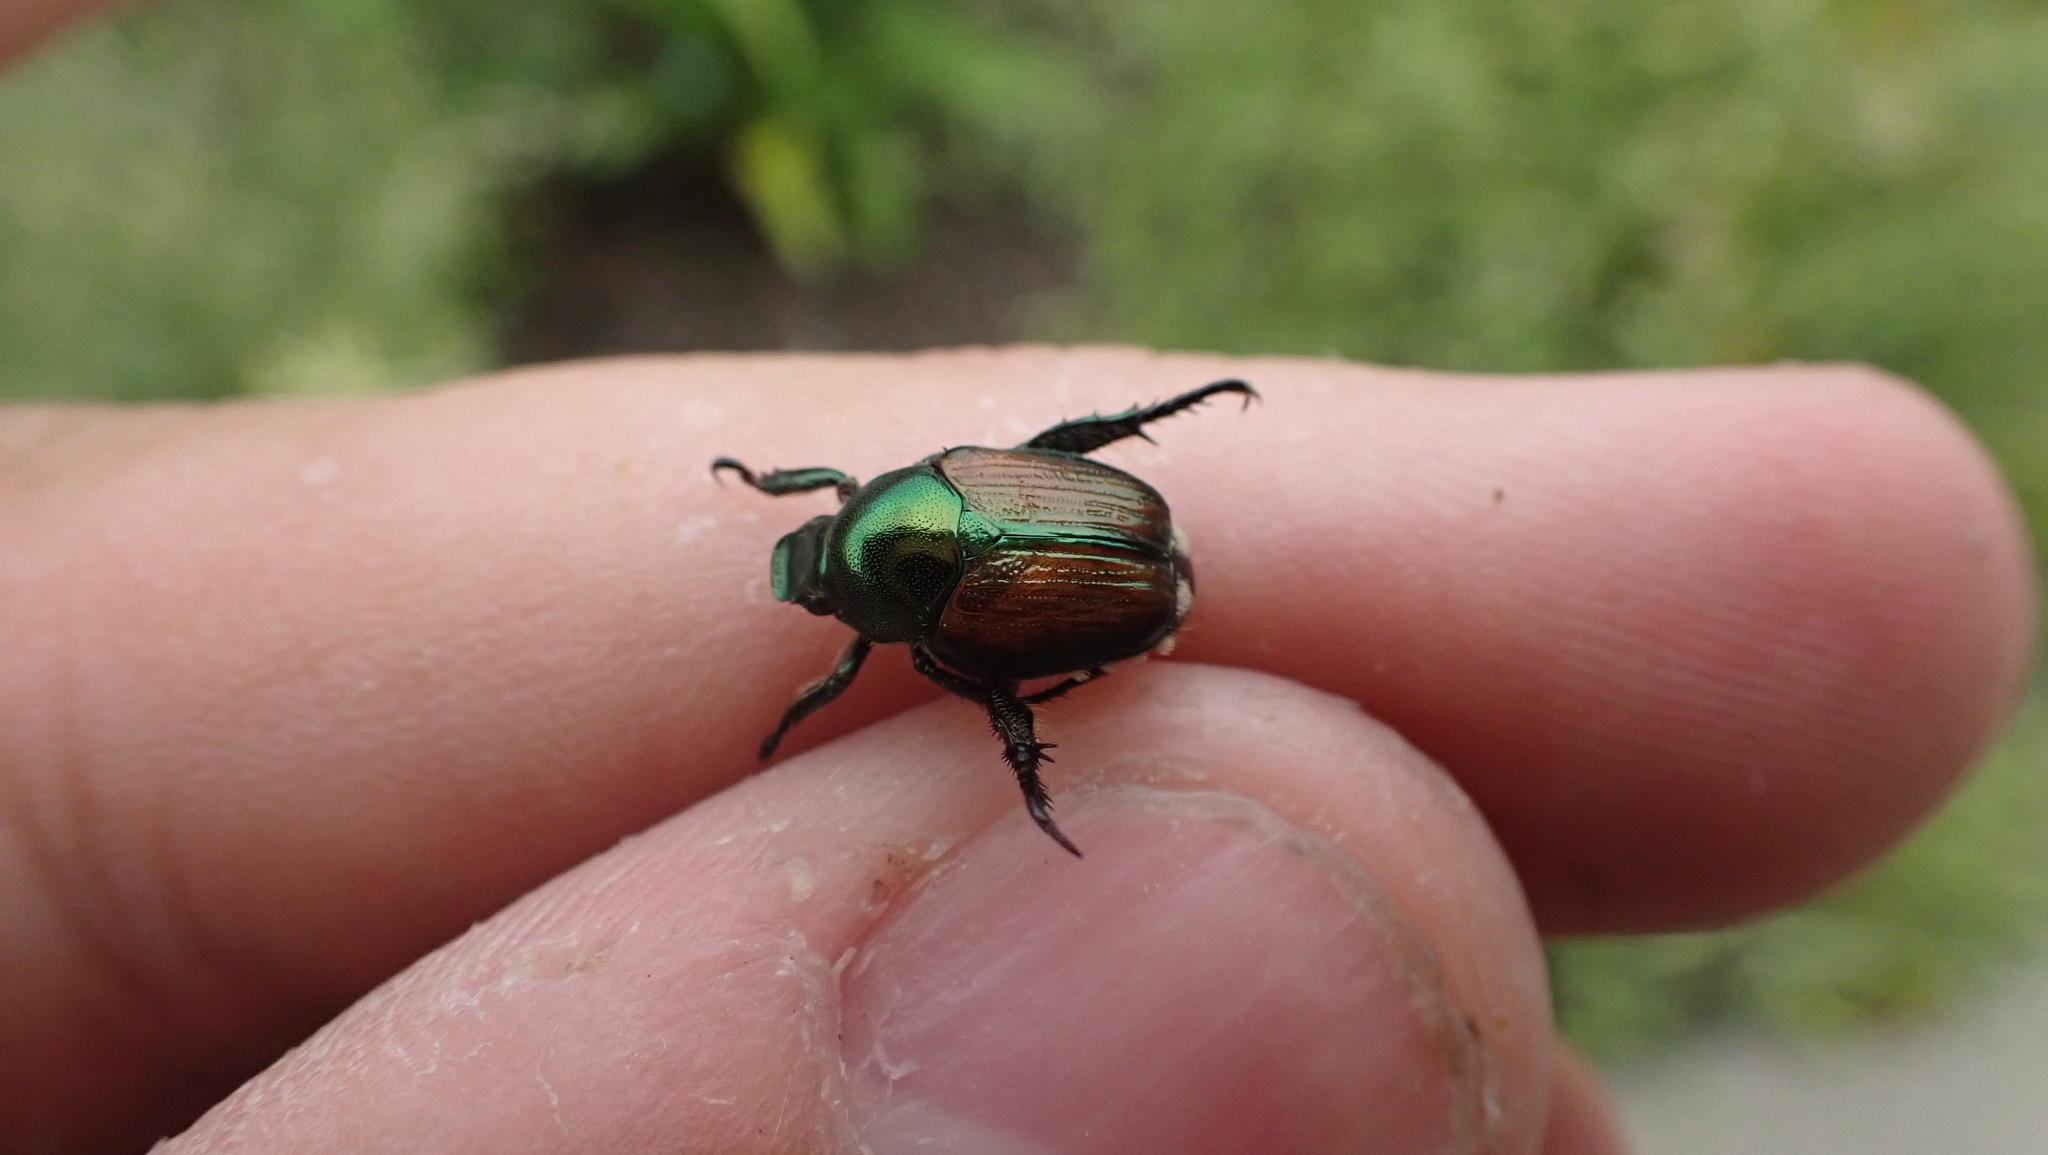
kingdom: Animalia
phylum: Arthropoda
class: Insecta
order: Coleoptera
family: Scarabaeidae
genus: Popillia
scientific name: Popillia japonica
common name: Japanese beetle
